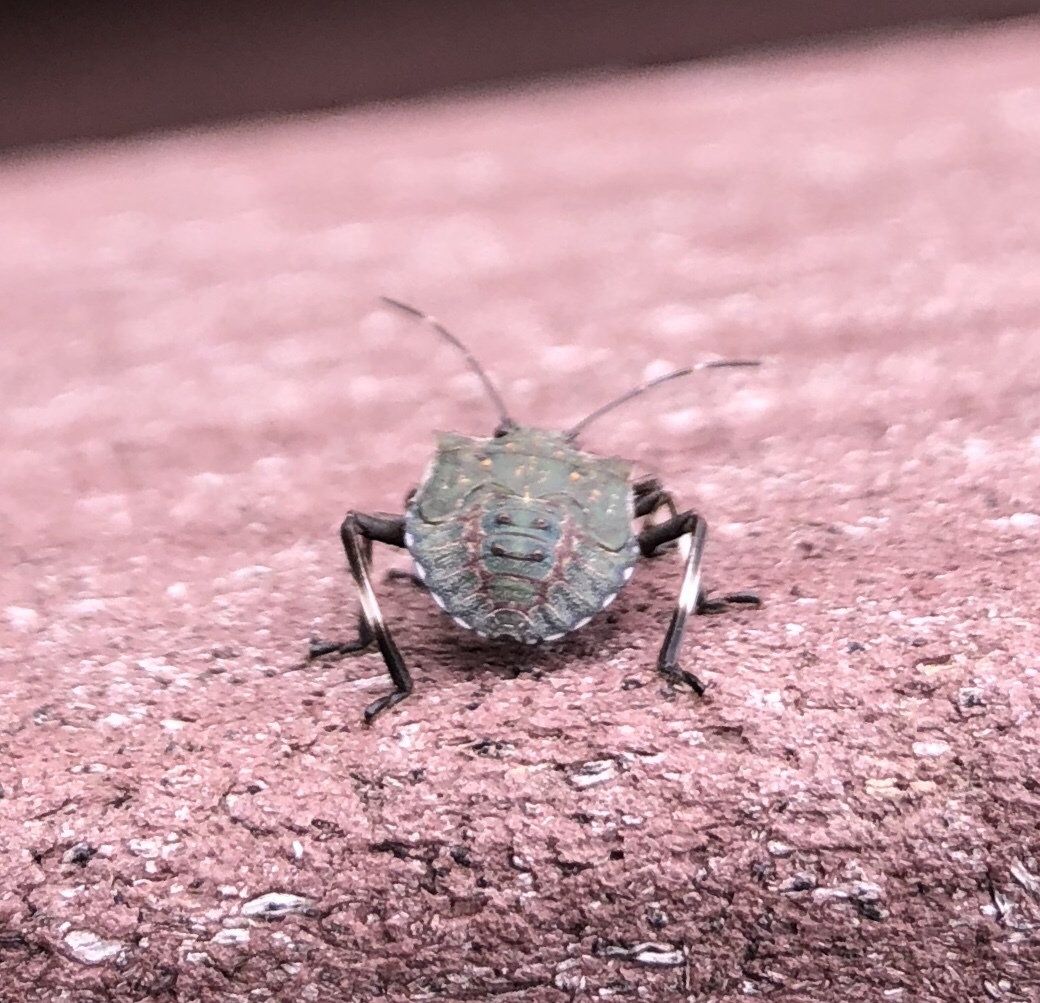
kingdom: Animalia
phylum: Arthropoda
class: Insecta
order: Hemiptera
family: Pentatomidae
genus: Halyomorpha
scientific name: Halyomorpha halys
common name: Brown marmorated stink bug
